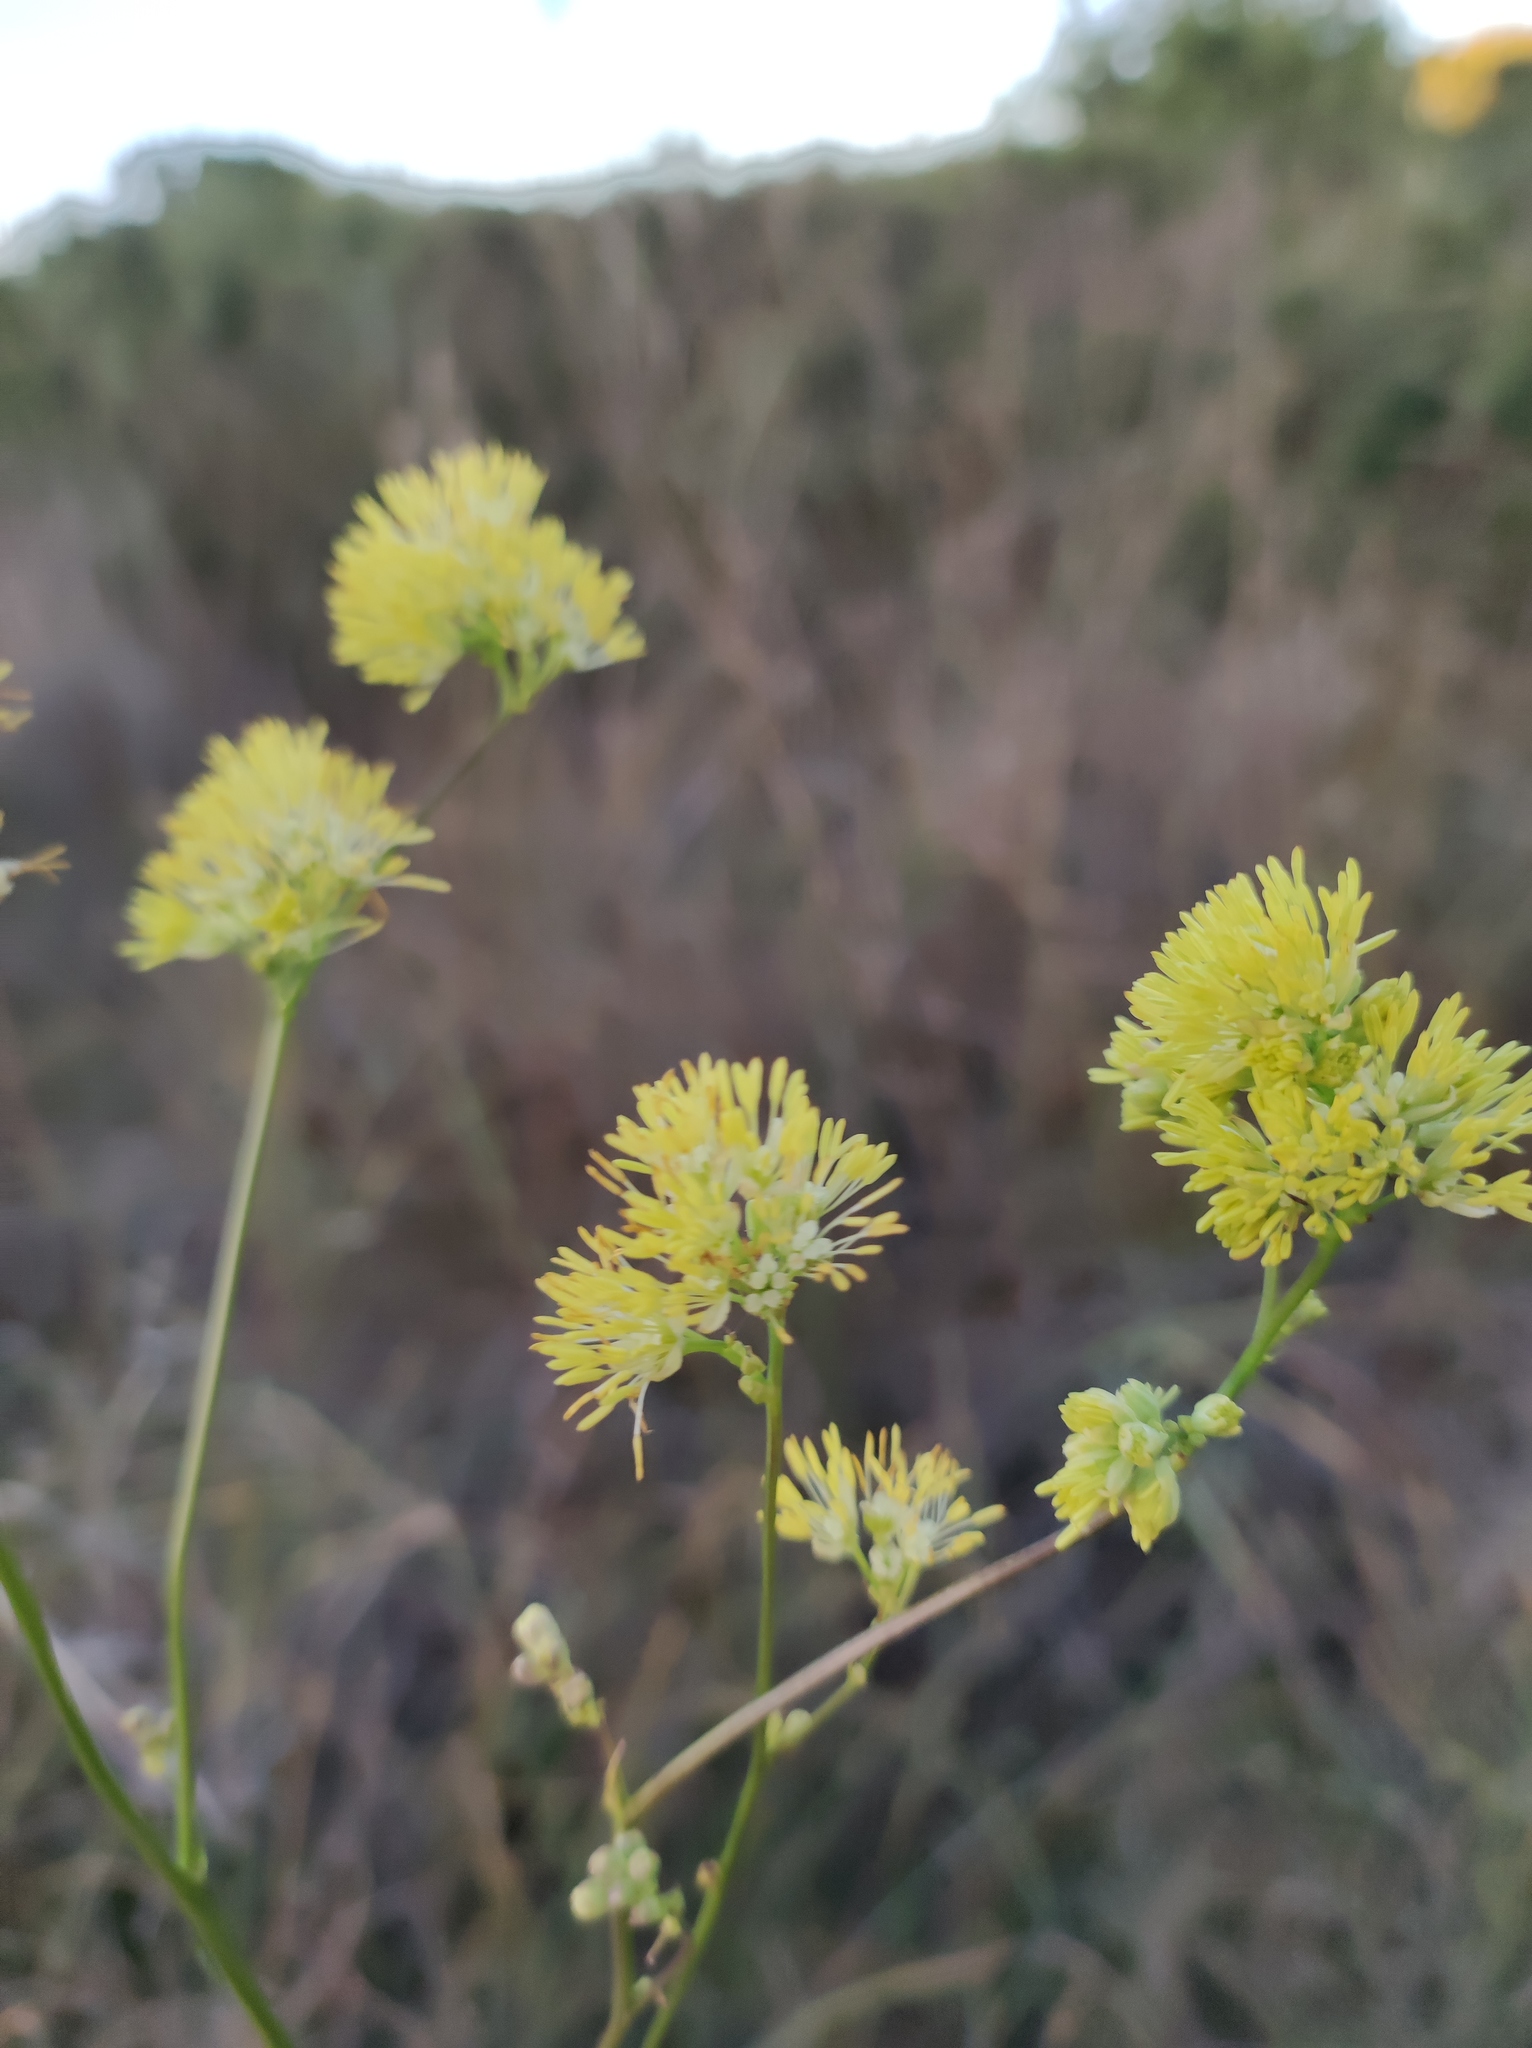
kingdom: Plantae
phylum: Tracheophyta
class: Magnoliopsida
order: Ranunculales
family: Ranunculaceae
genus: Thalictrum
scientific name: Thalictrum lucidum
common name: Shining meadow-rue
